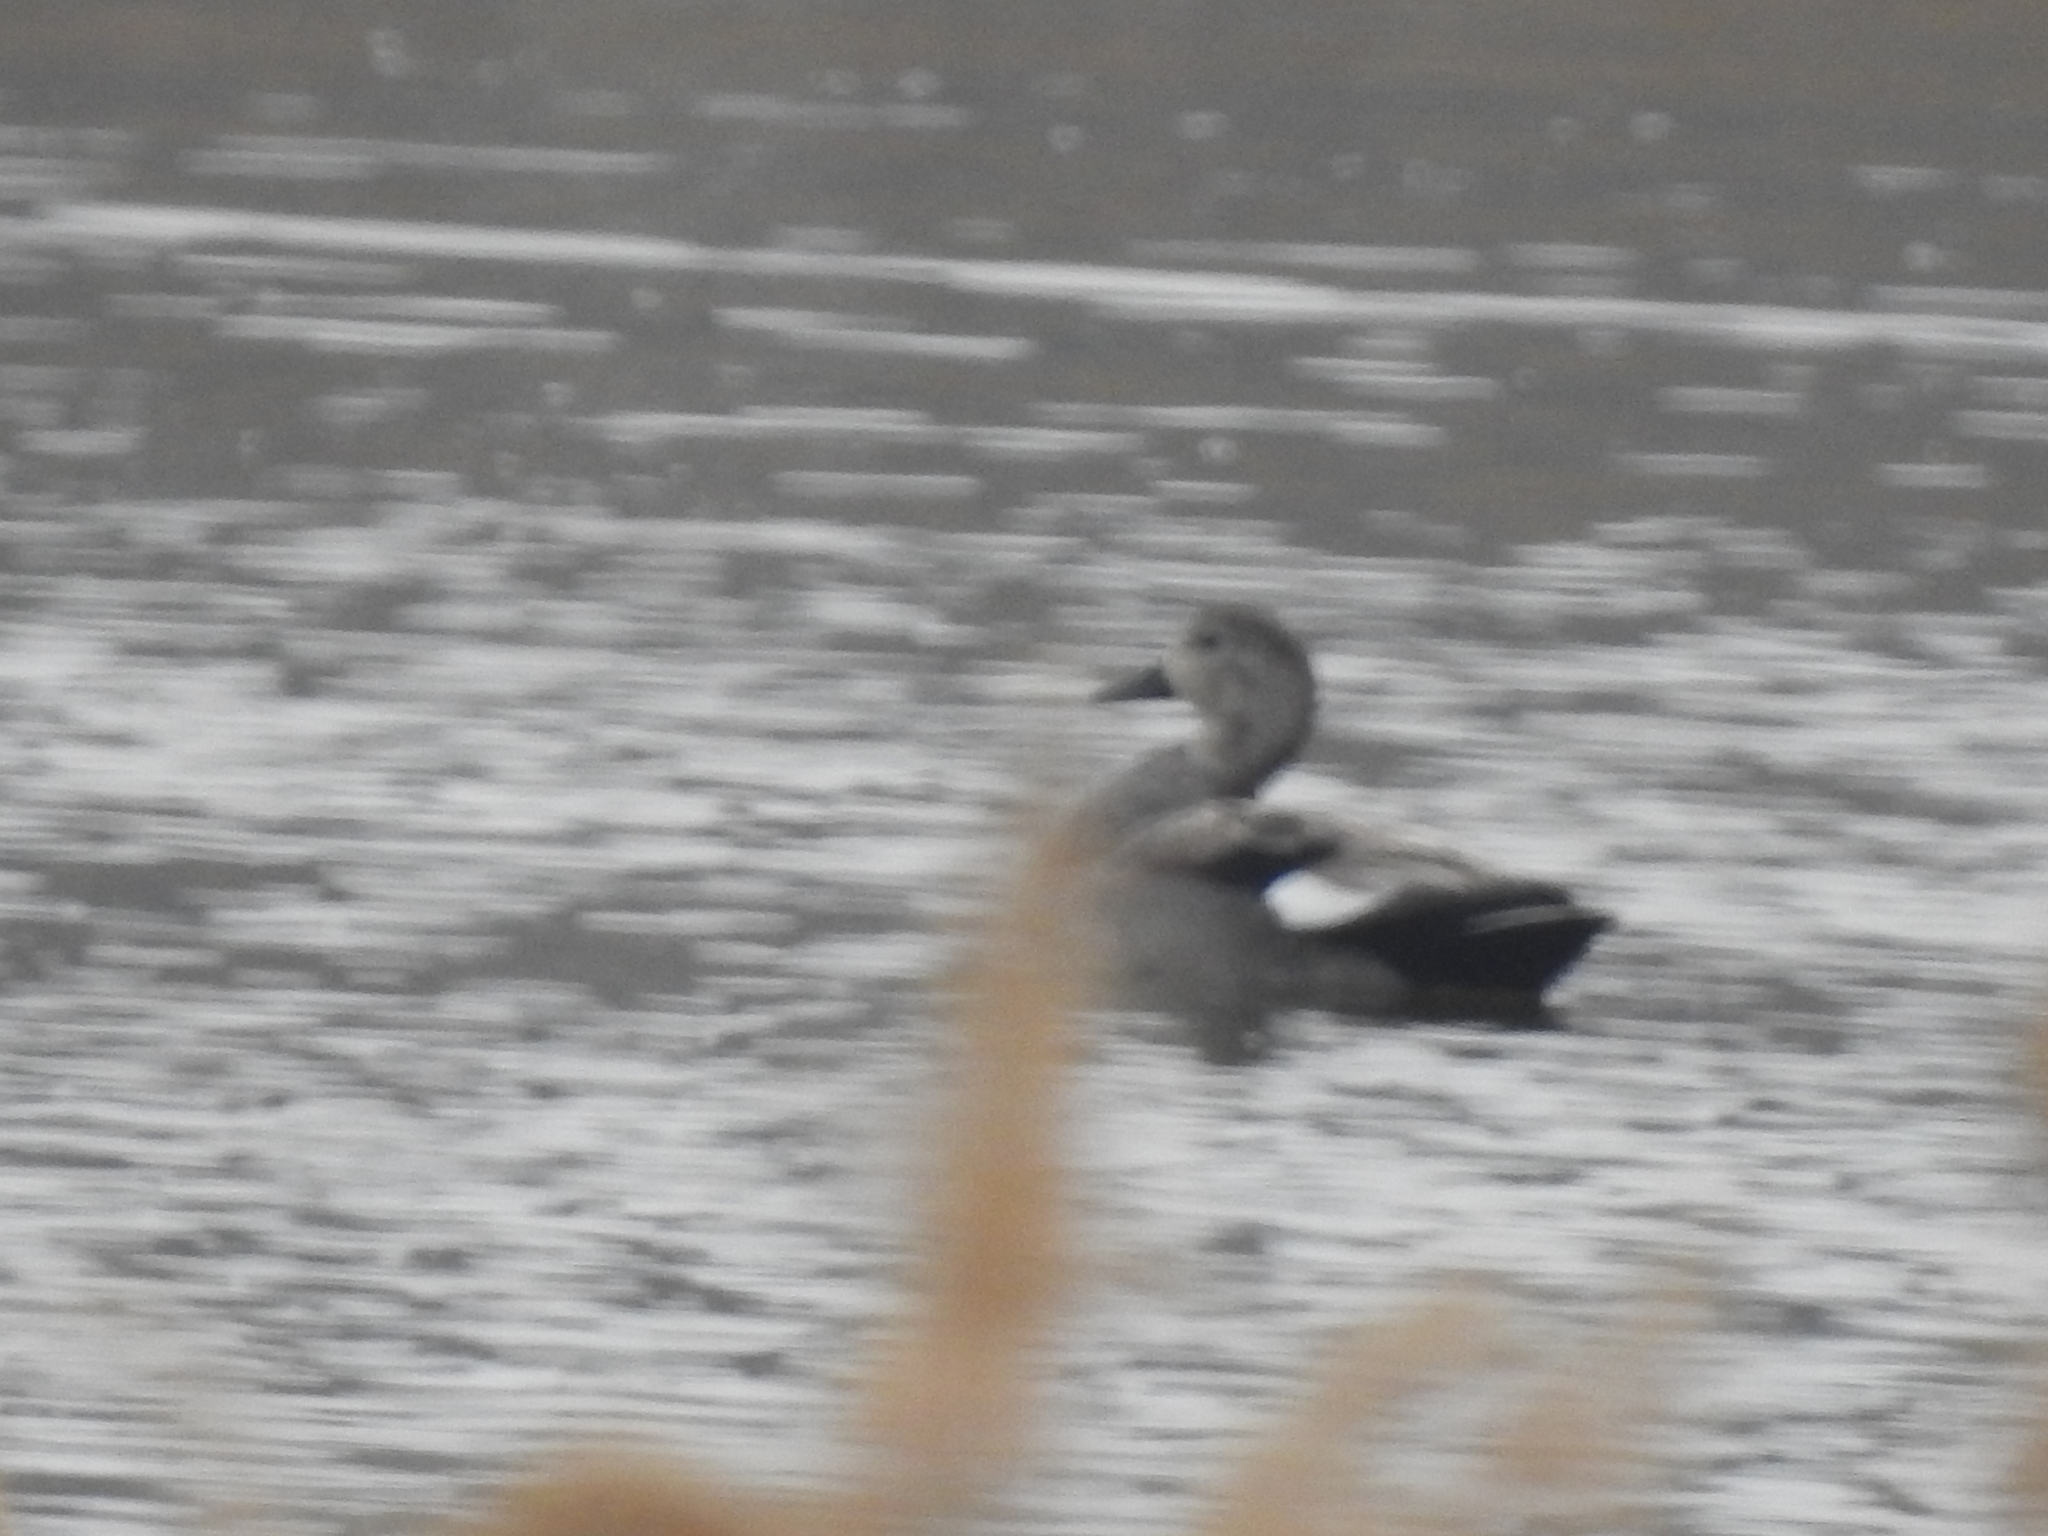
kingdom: Animalia
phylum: Chordata
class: Aves
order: Anseriformes
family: Anatidae
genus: Mareca
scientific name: Mareca strepera
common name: Gadwall
